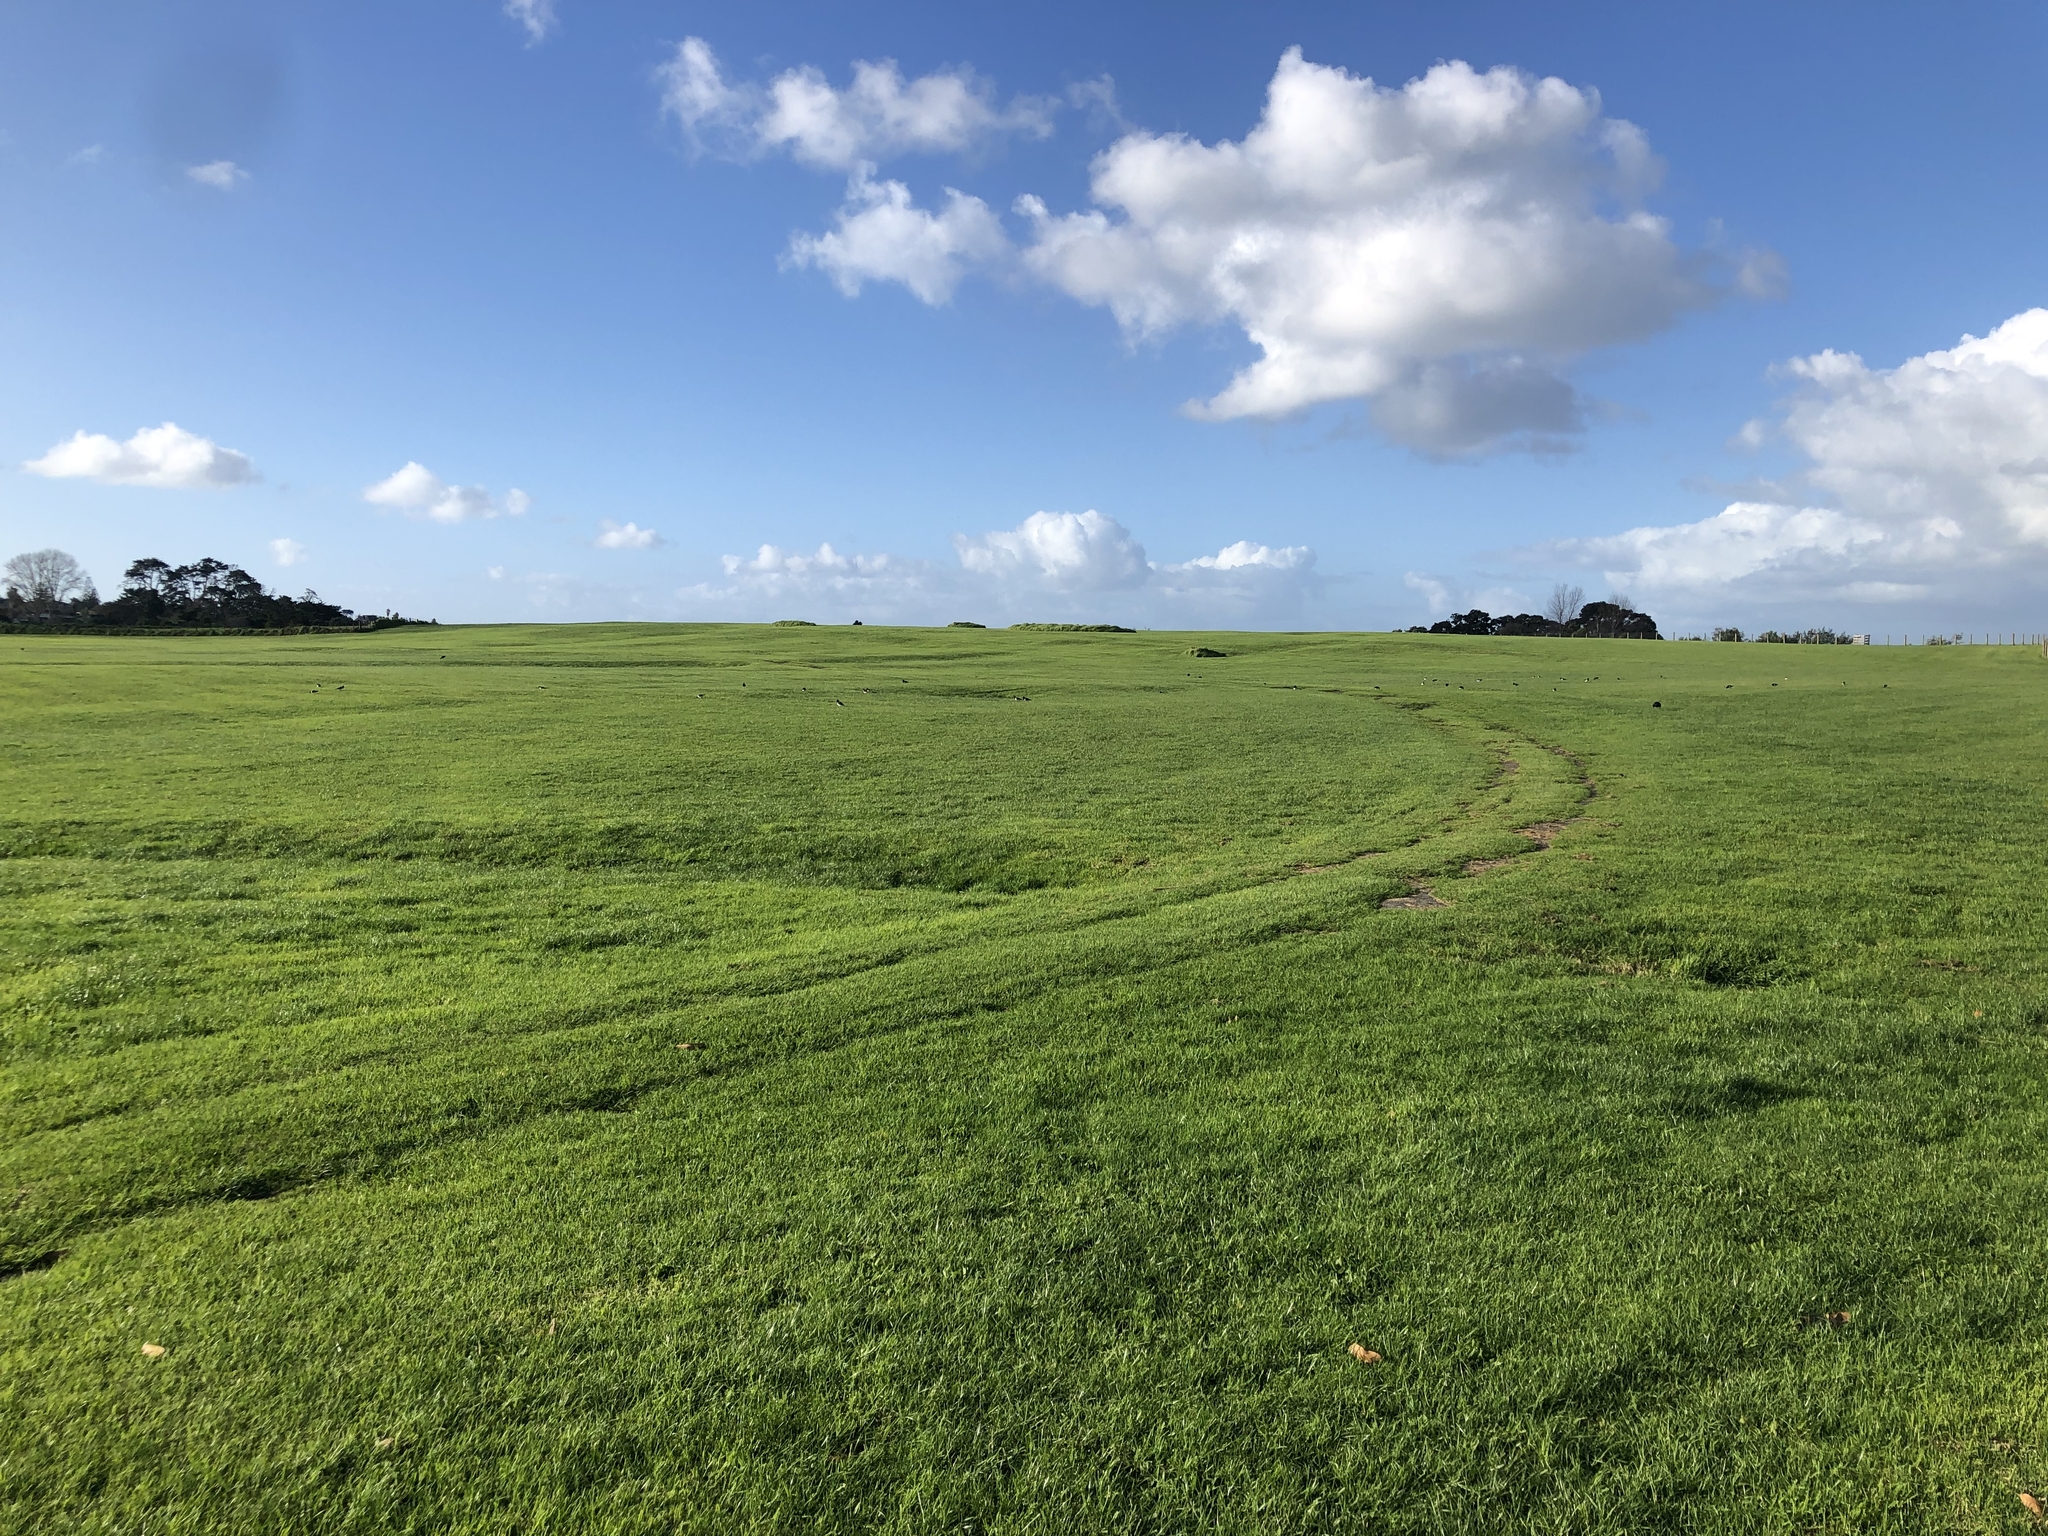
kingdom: Animalia
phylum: Chordata
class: Aves
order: Charadriiformes
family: Haematopodidae
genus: Haematopus
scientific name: Haematopus finschi
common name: South island oystercatcher
